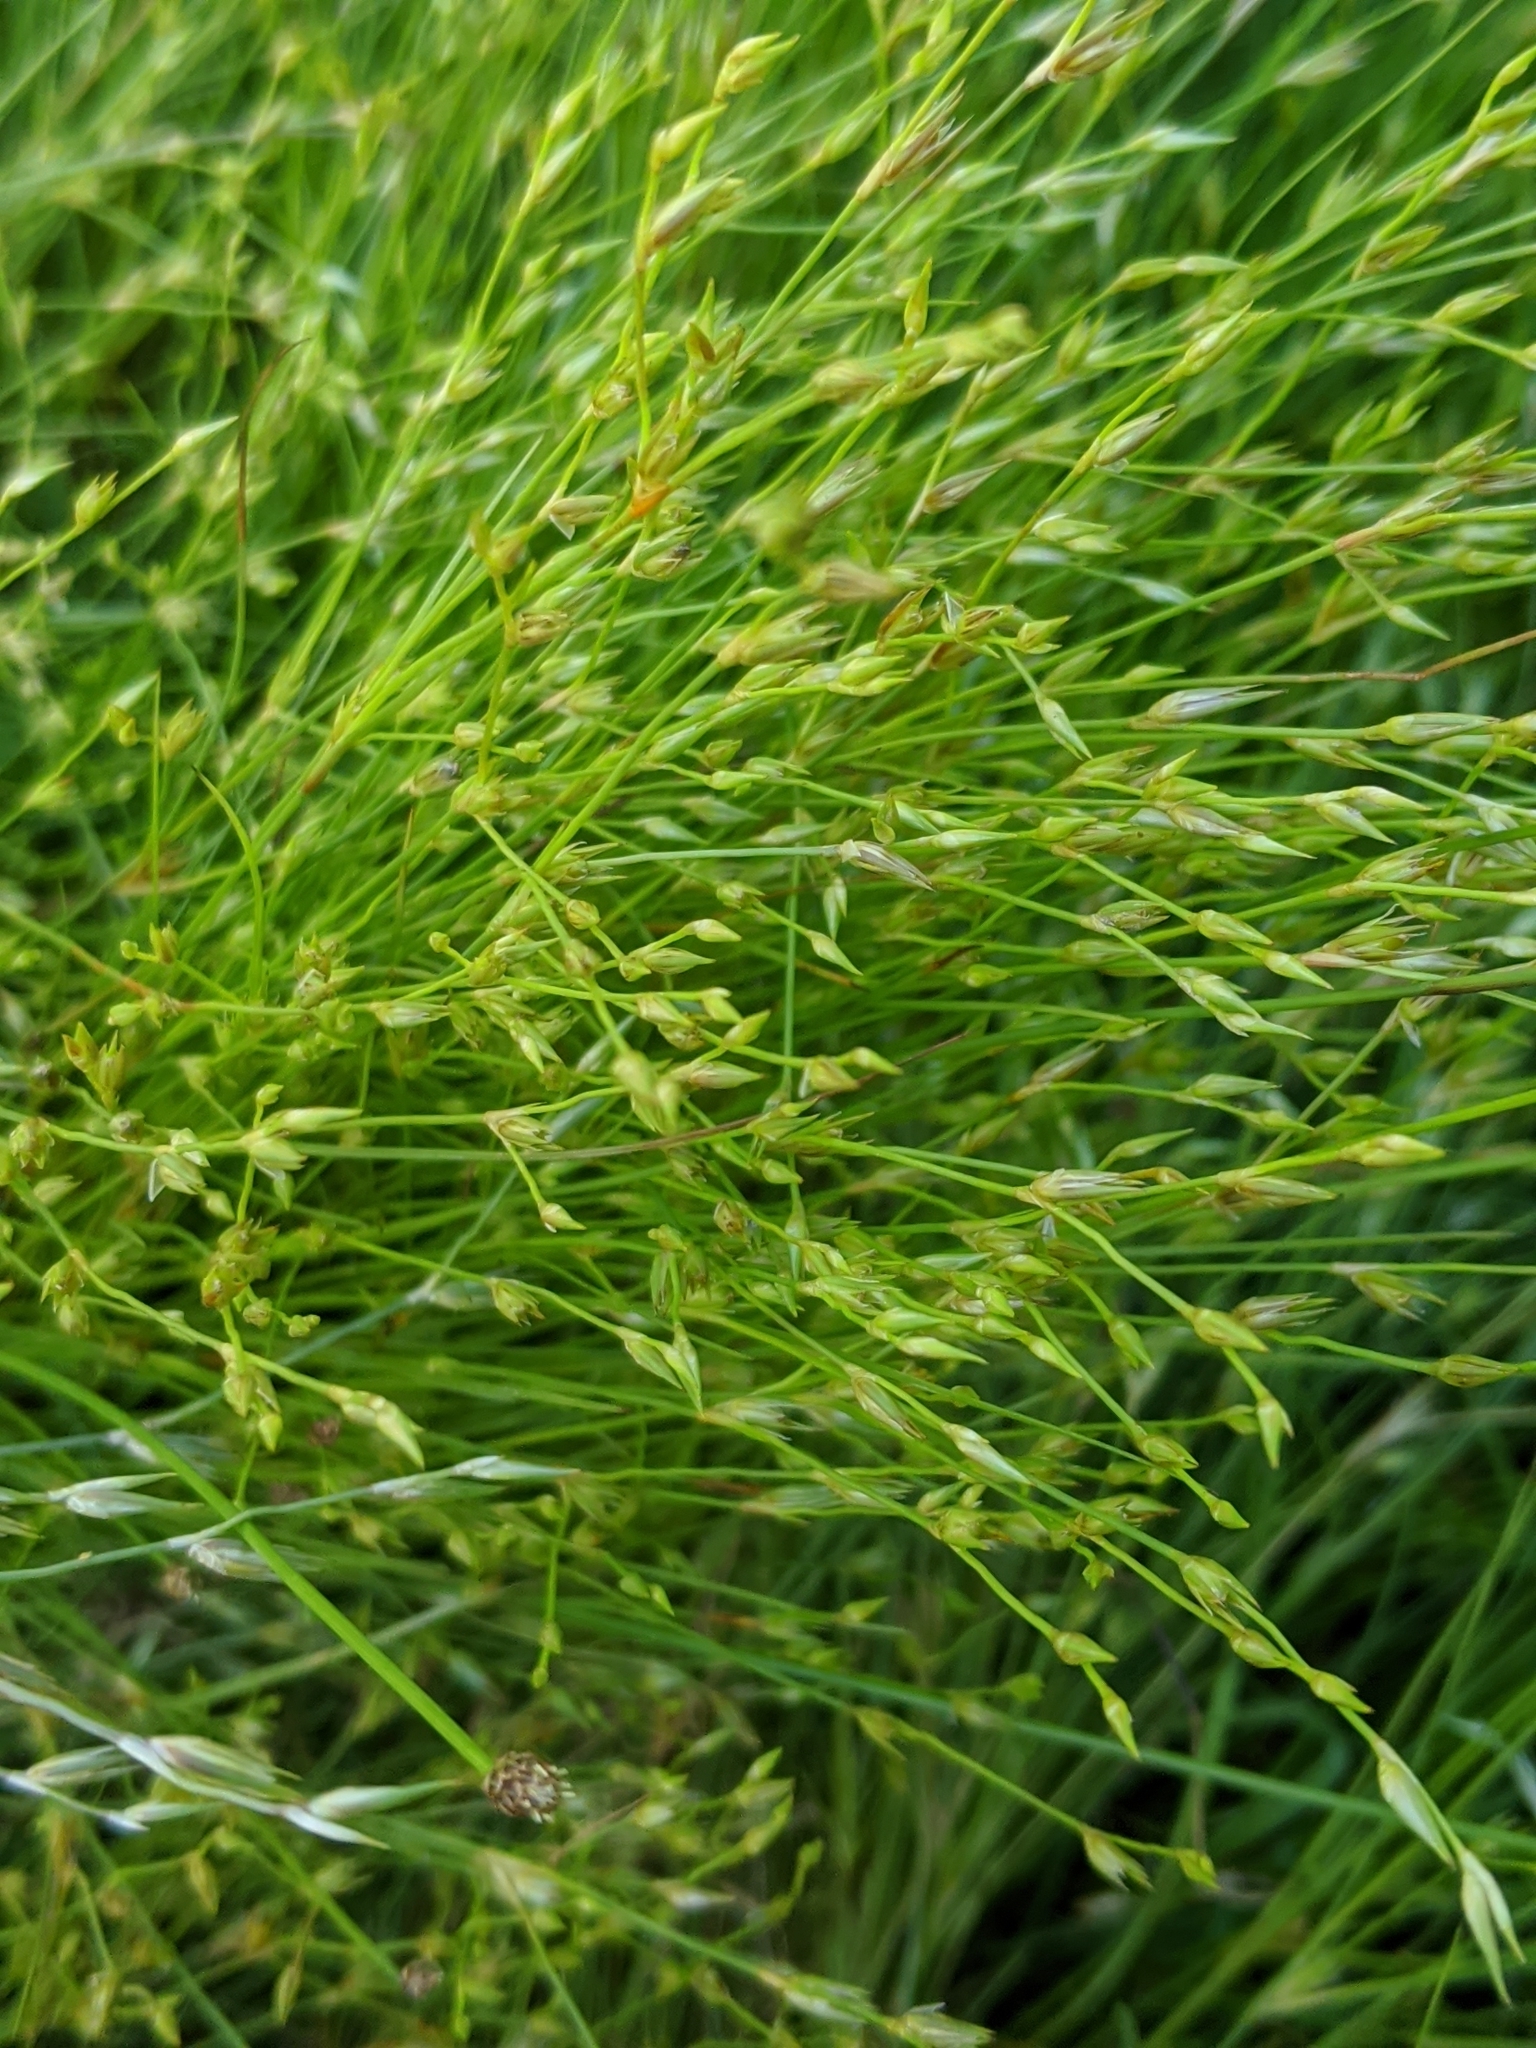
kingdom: Plantae
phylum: Tracheophyta
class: Liliopsida
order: Poales
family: Juncaceae
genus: Juncus
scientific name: Juncus bufonius
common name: Toad rush
